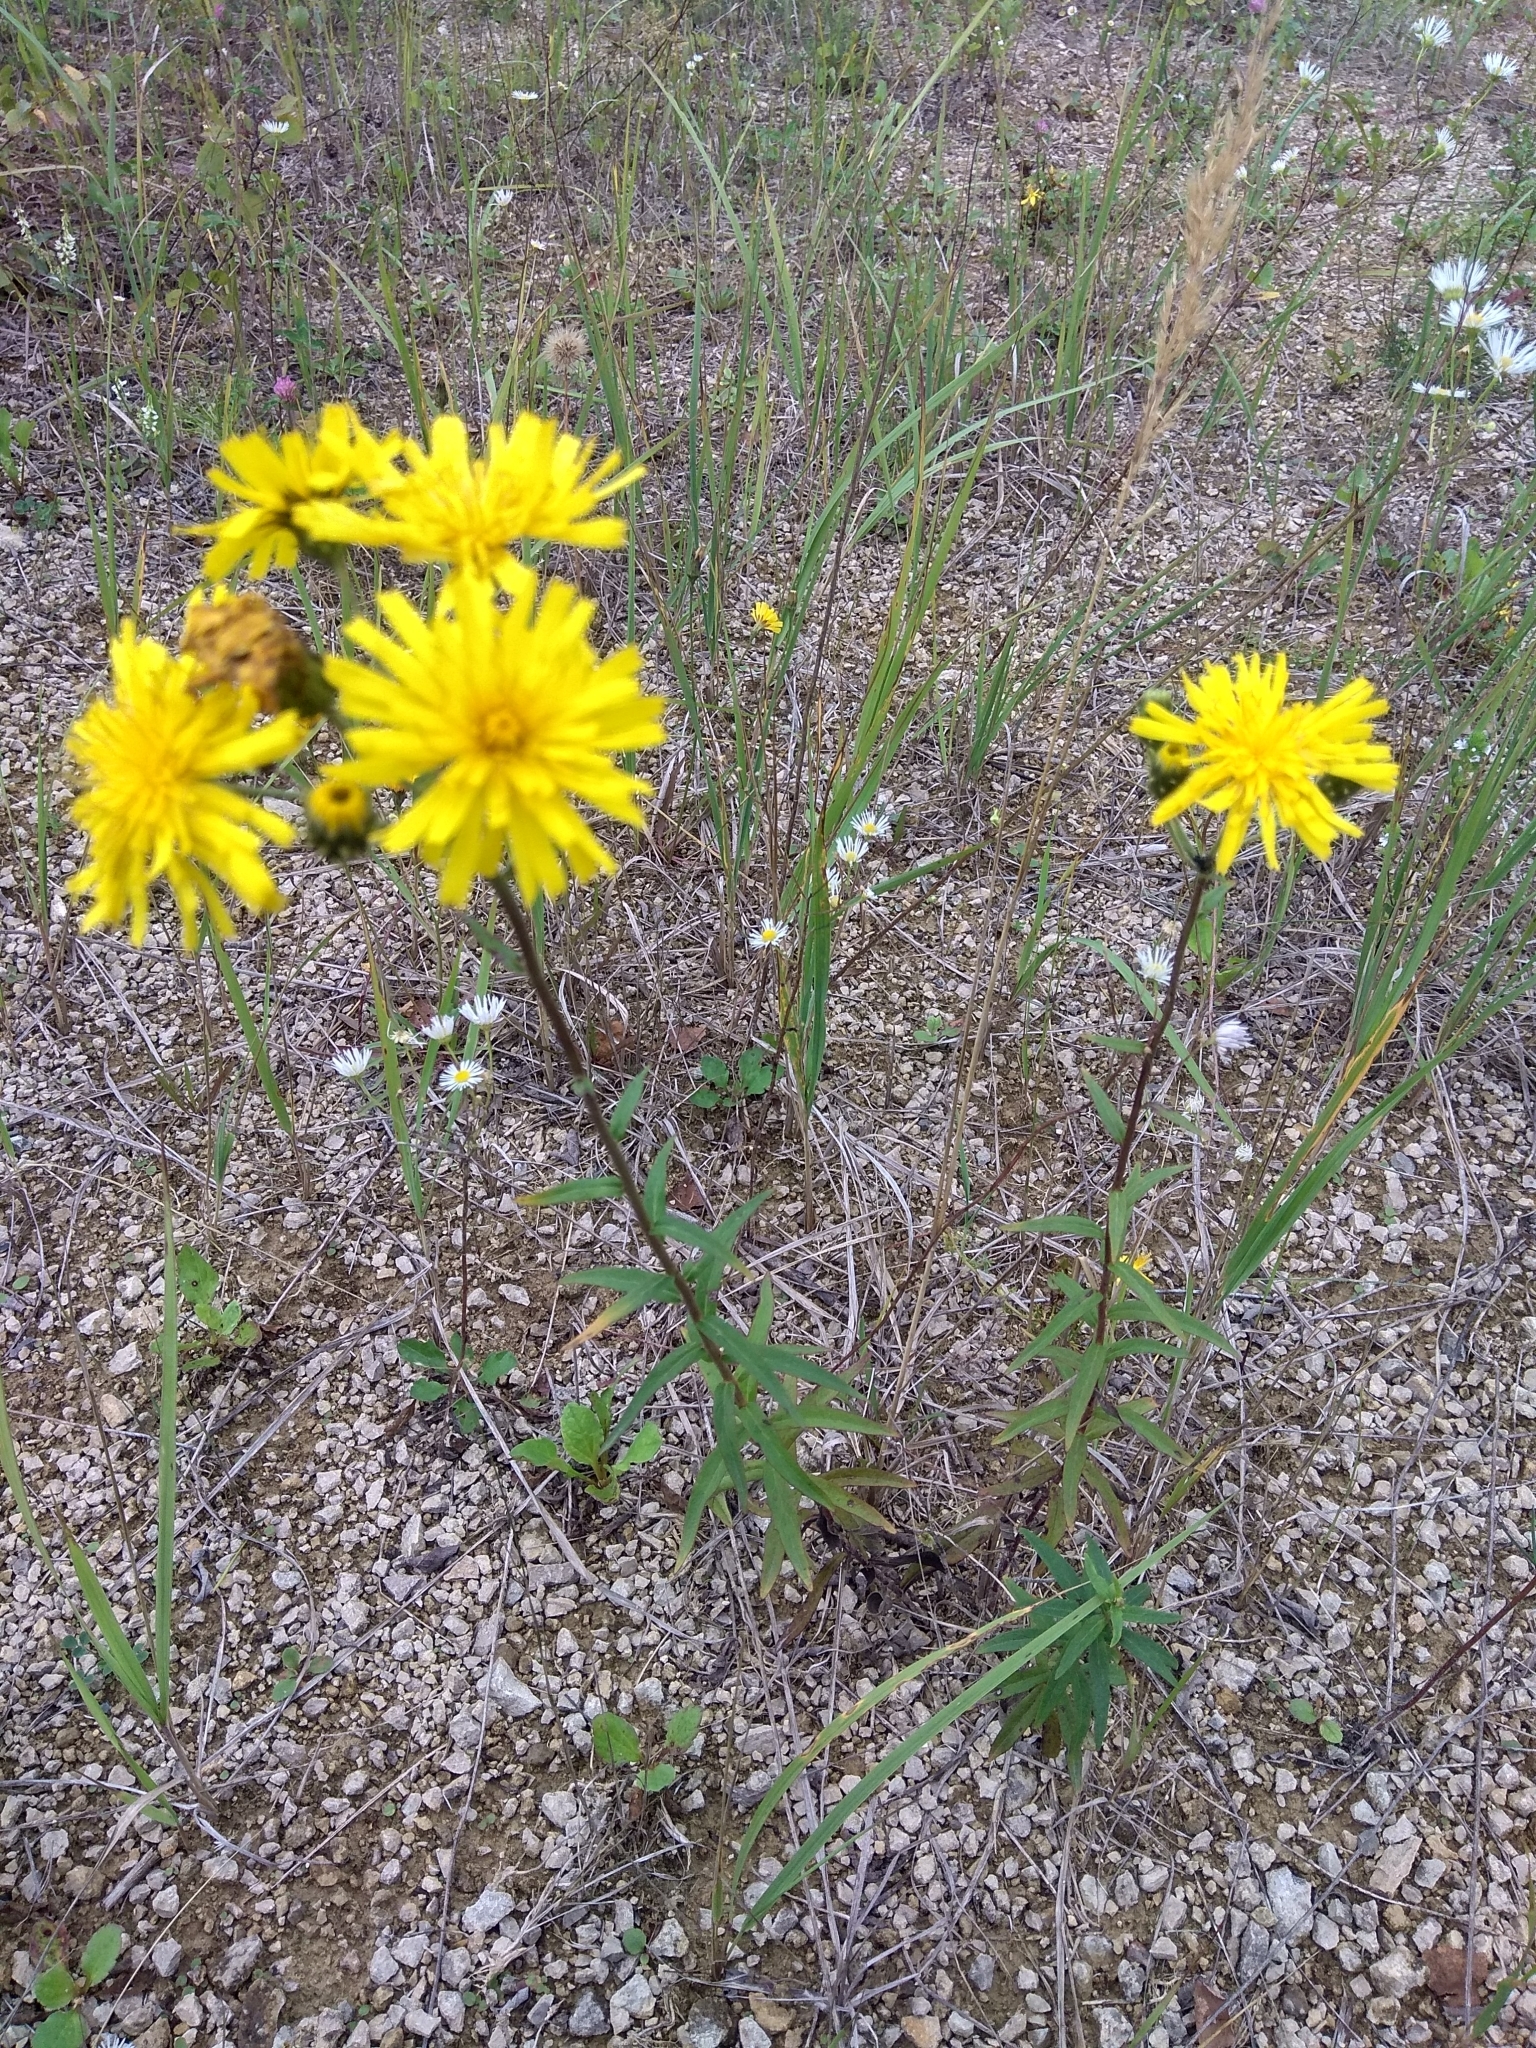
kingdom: Plantae
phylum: Tracheophyta
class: Magnoliopsida
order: Asterales
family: Asteraceae
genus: Hieracium
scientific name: Hieracium umbellatum
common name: Northern hawkweed
